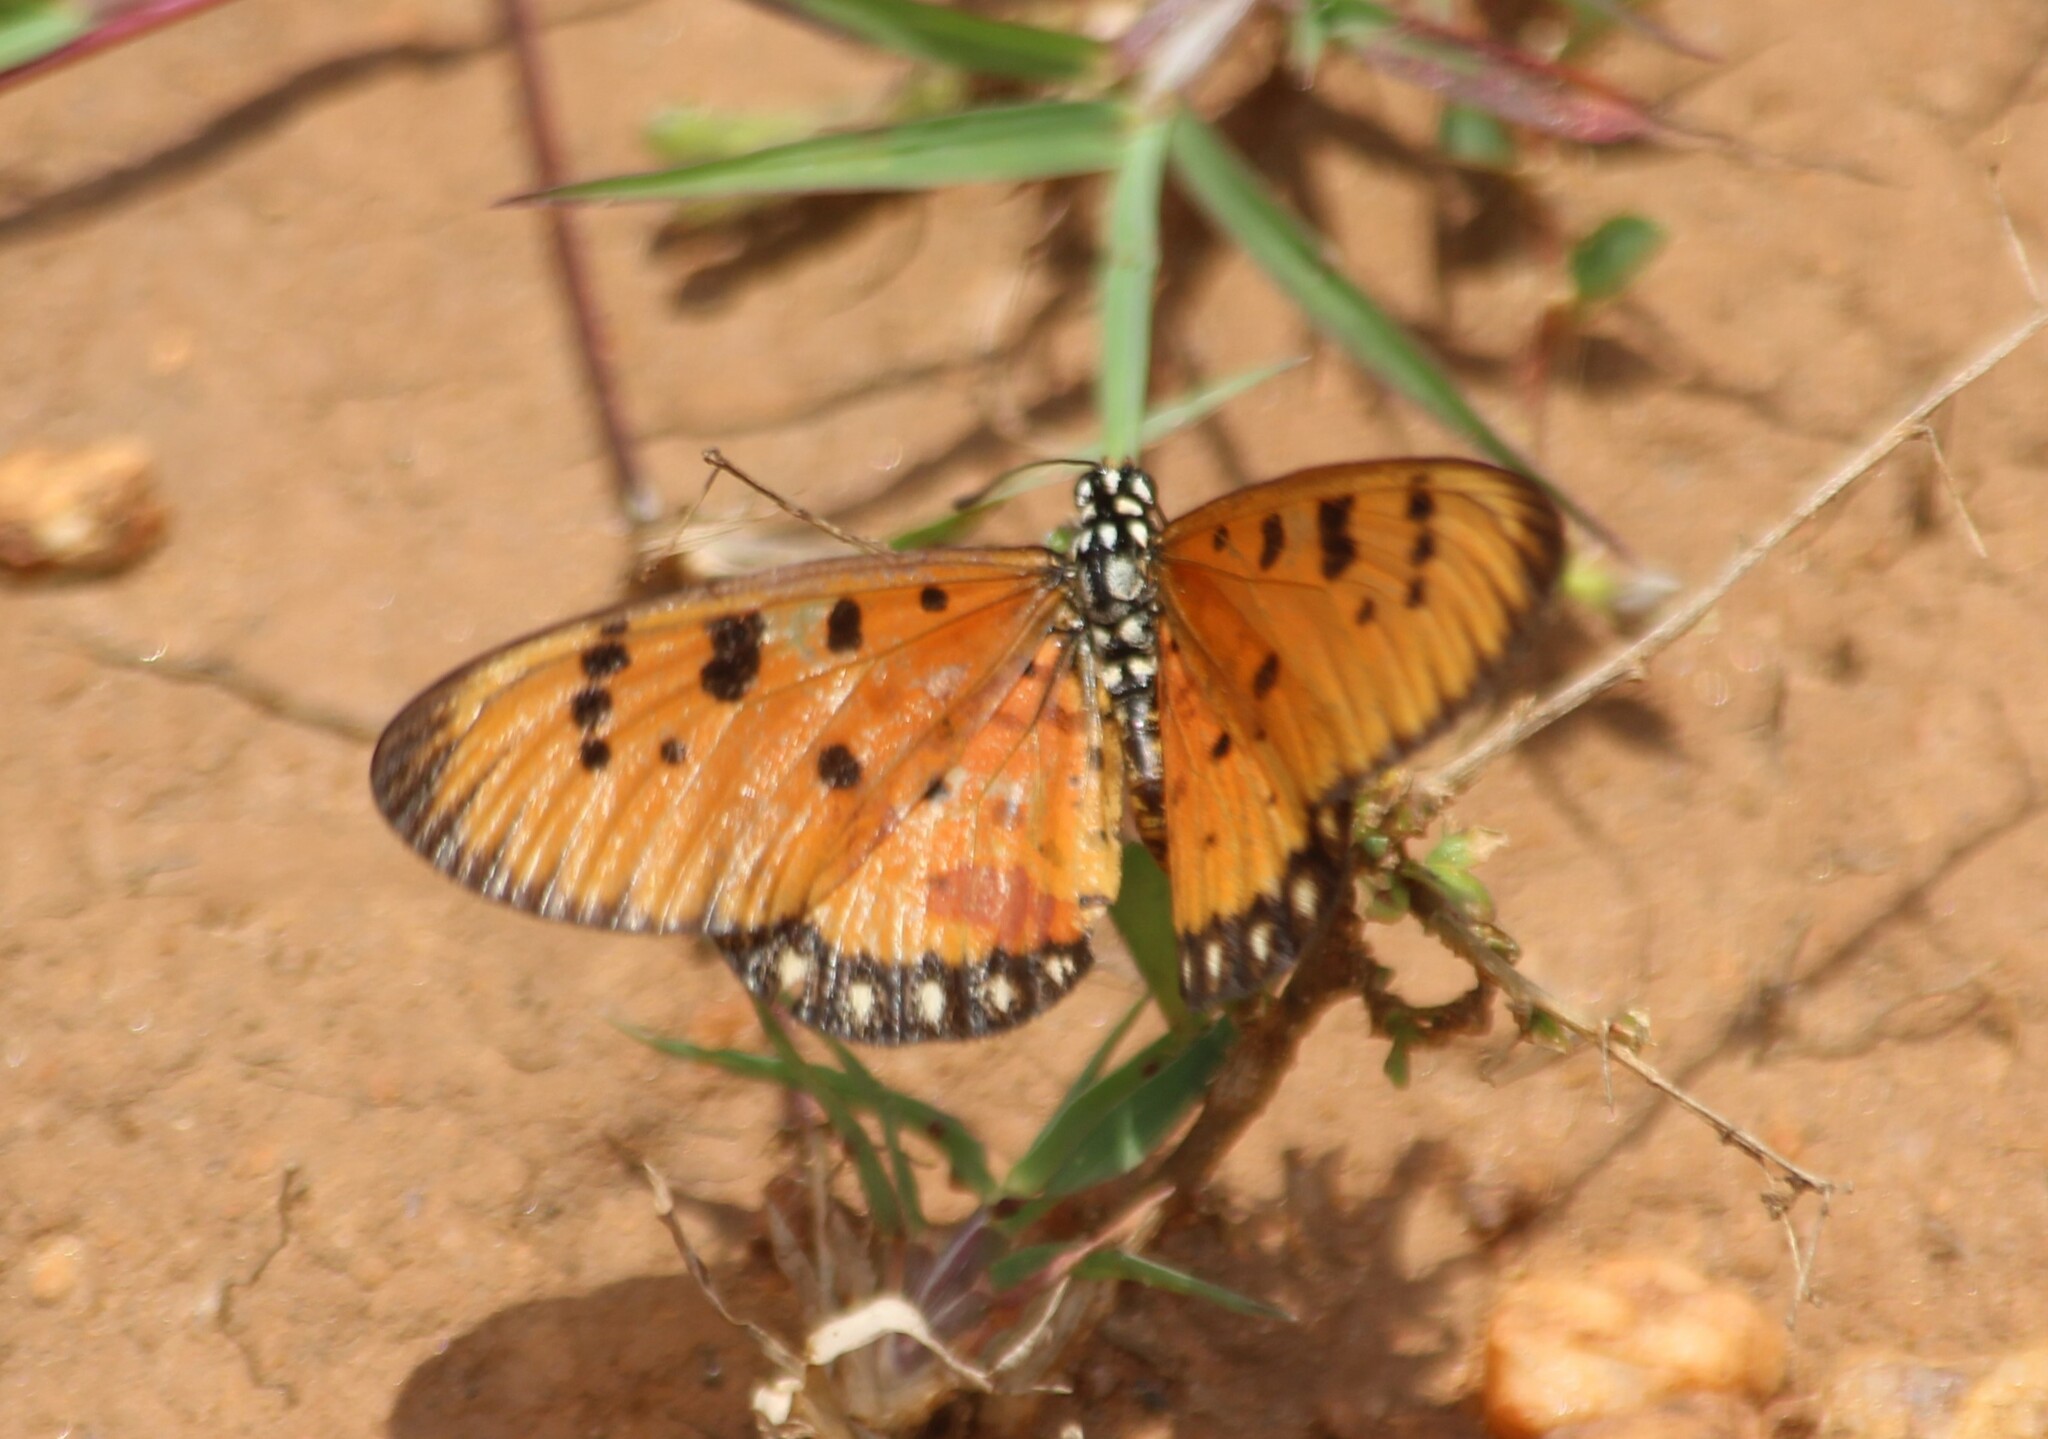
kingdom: Animalia
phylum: Arthropoda
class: Insecta
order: Lepidoptera
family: Nymphalidae
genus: Acraea
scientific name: Acraea terpsicore
